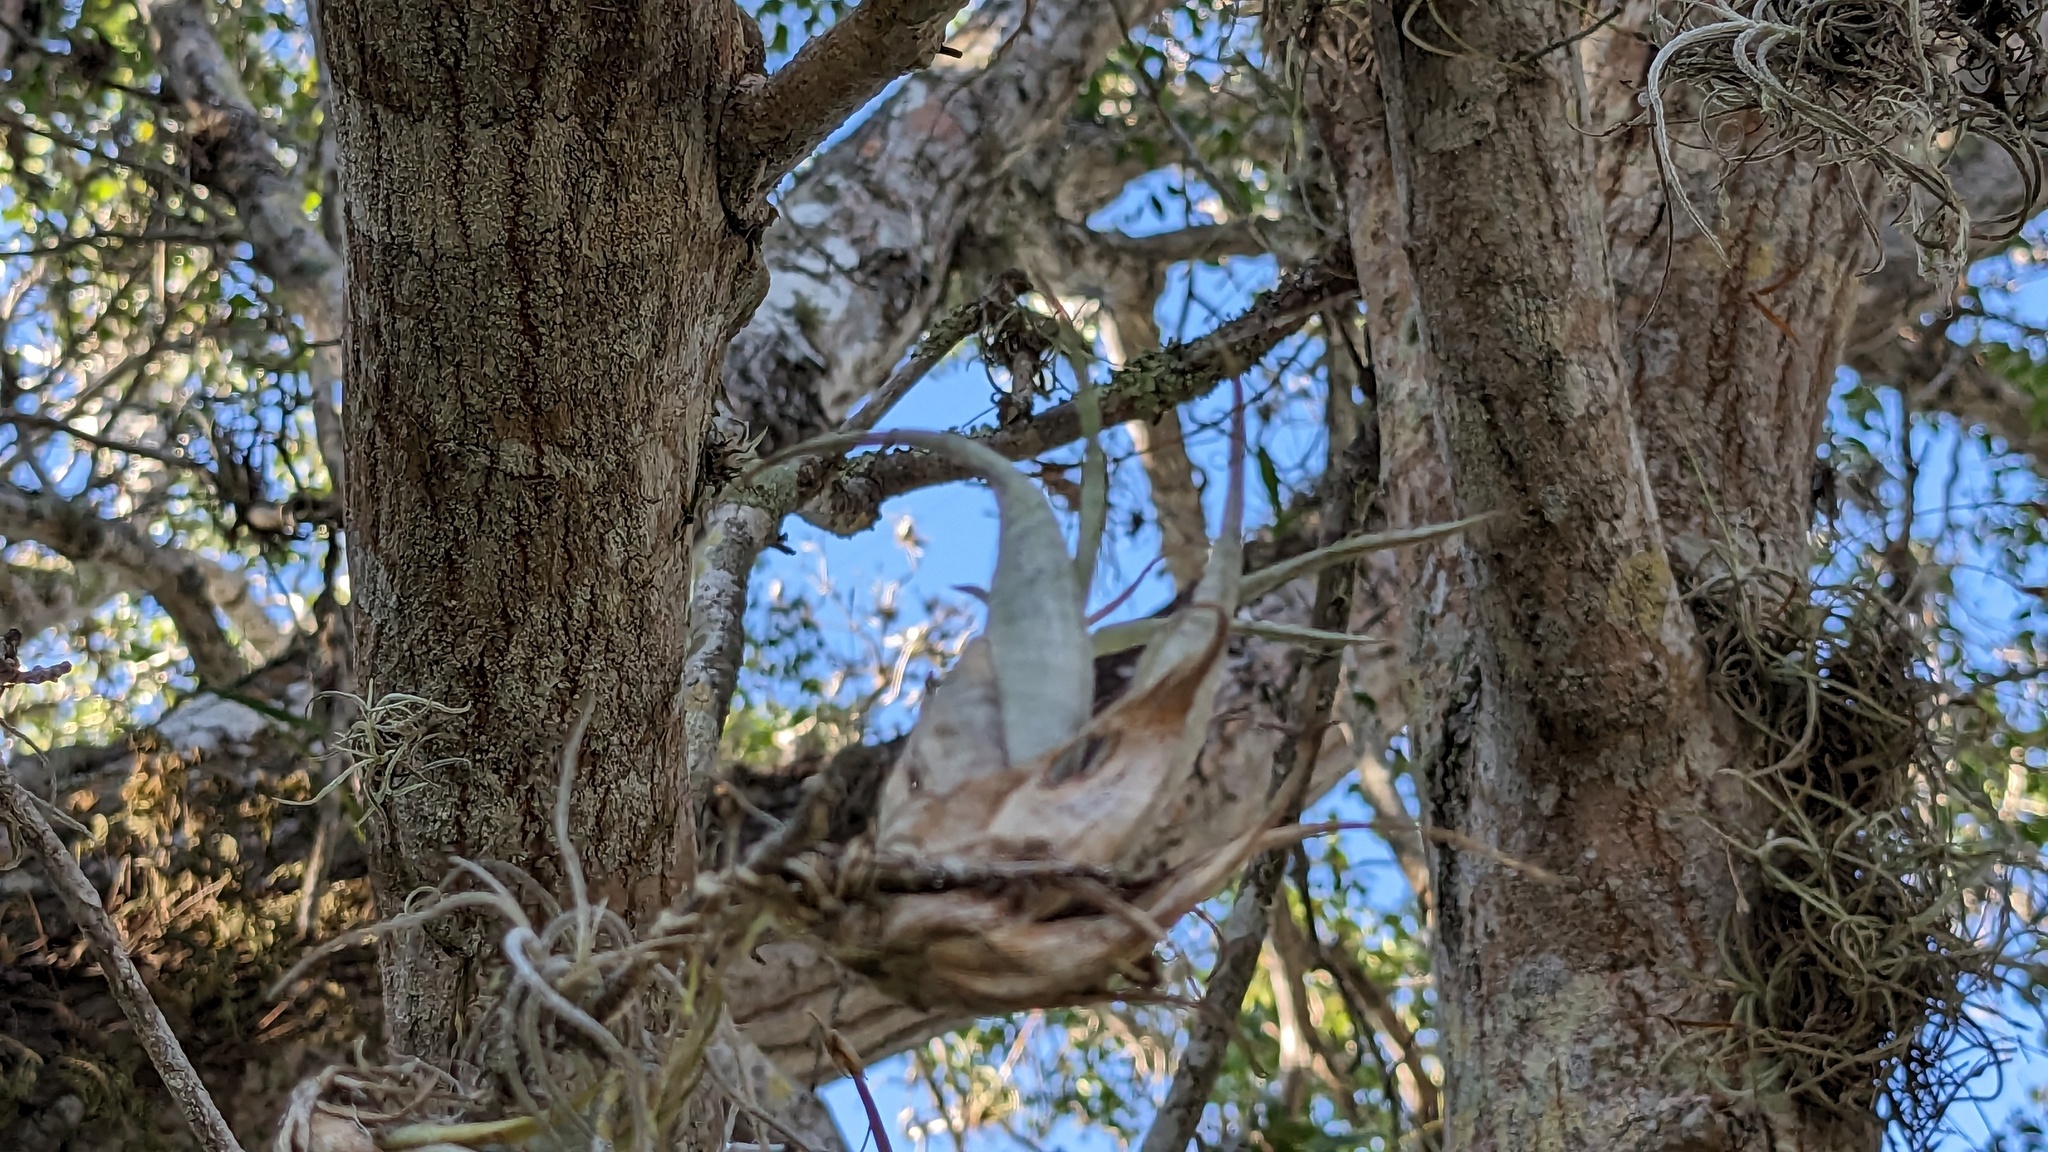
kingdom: Plantae
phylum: Tracheophyta
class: Liliopsida
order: Poales
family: Bromeliaceae
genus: Tillandsia
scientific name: Tillandsia flexuosa
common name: Banded airplant
